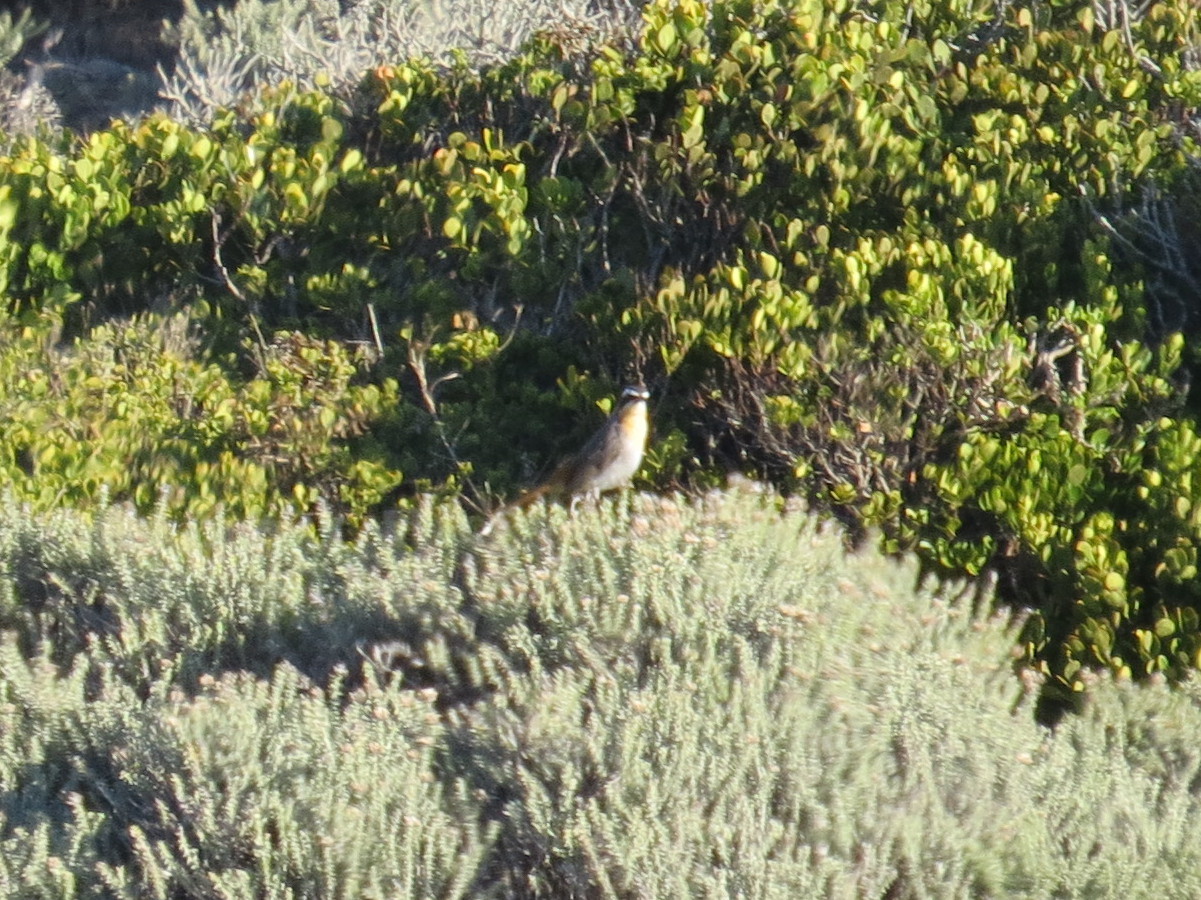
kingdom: Animalia
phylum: Chordata
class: Aves
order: Passeriformes
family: Muscicapidae
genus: Cossypha
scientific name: Cossypha caffra
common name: Cape robin-chat
